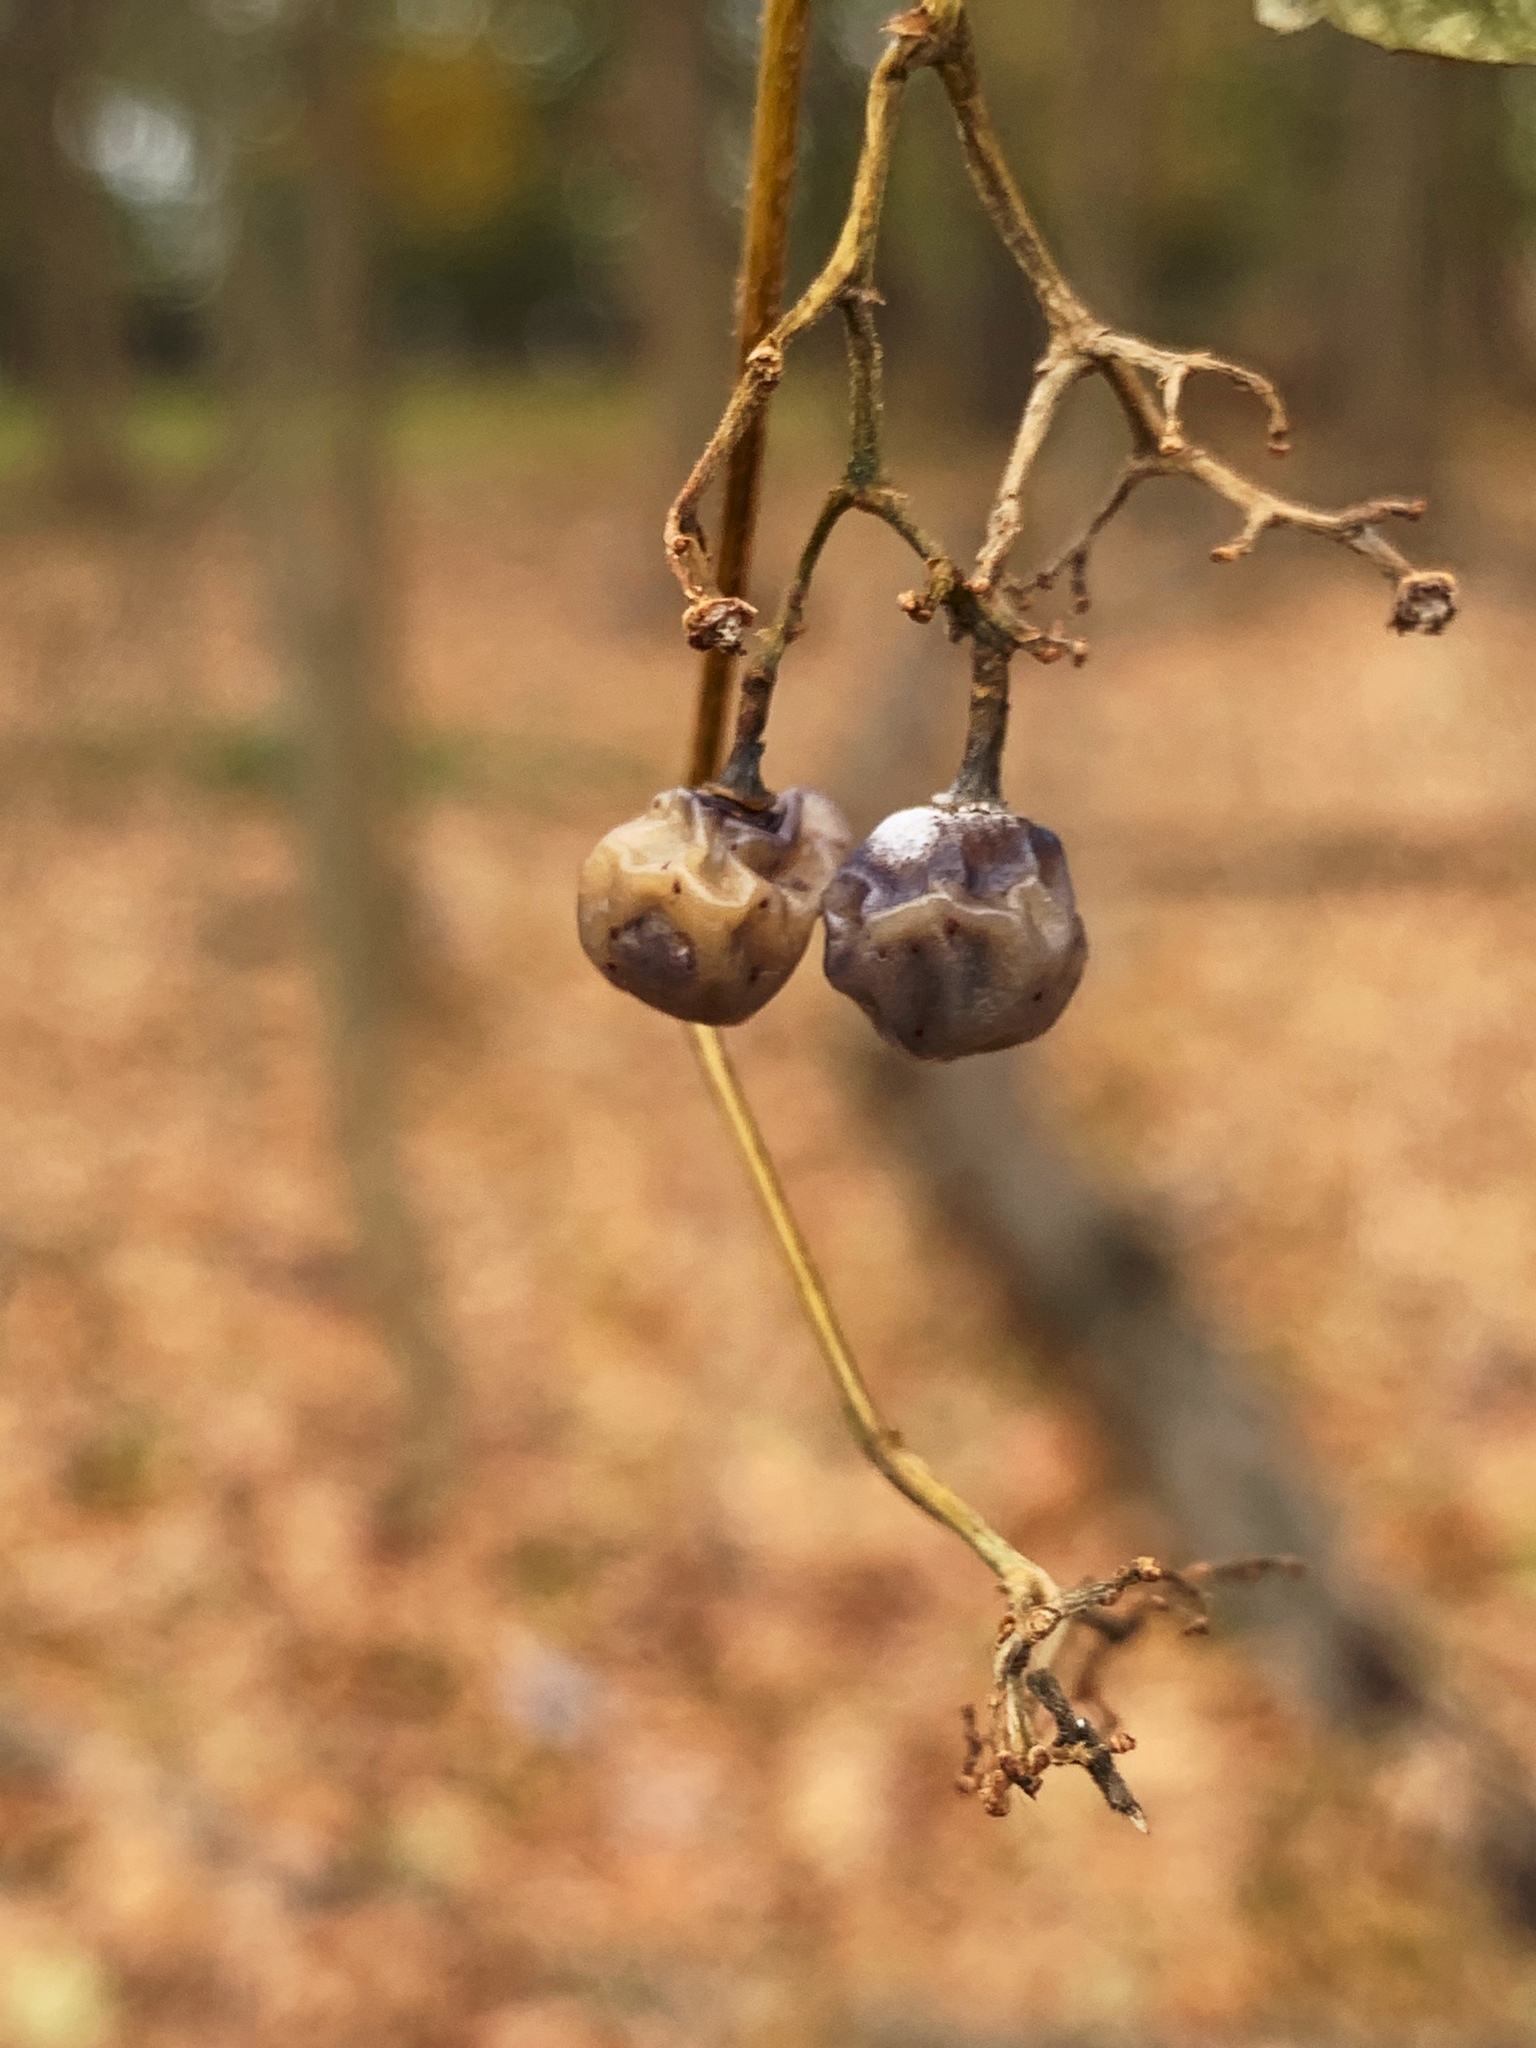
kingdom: Plantae
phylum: Tracheophyta
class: Magnoliopsida
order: Vitales
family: Vitaceae
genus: Ampelopsis
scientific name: Ampelopsis glandulosa
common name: Amur peppervine
